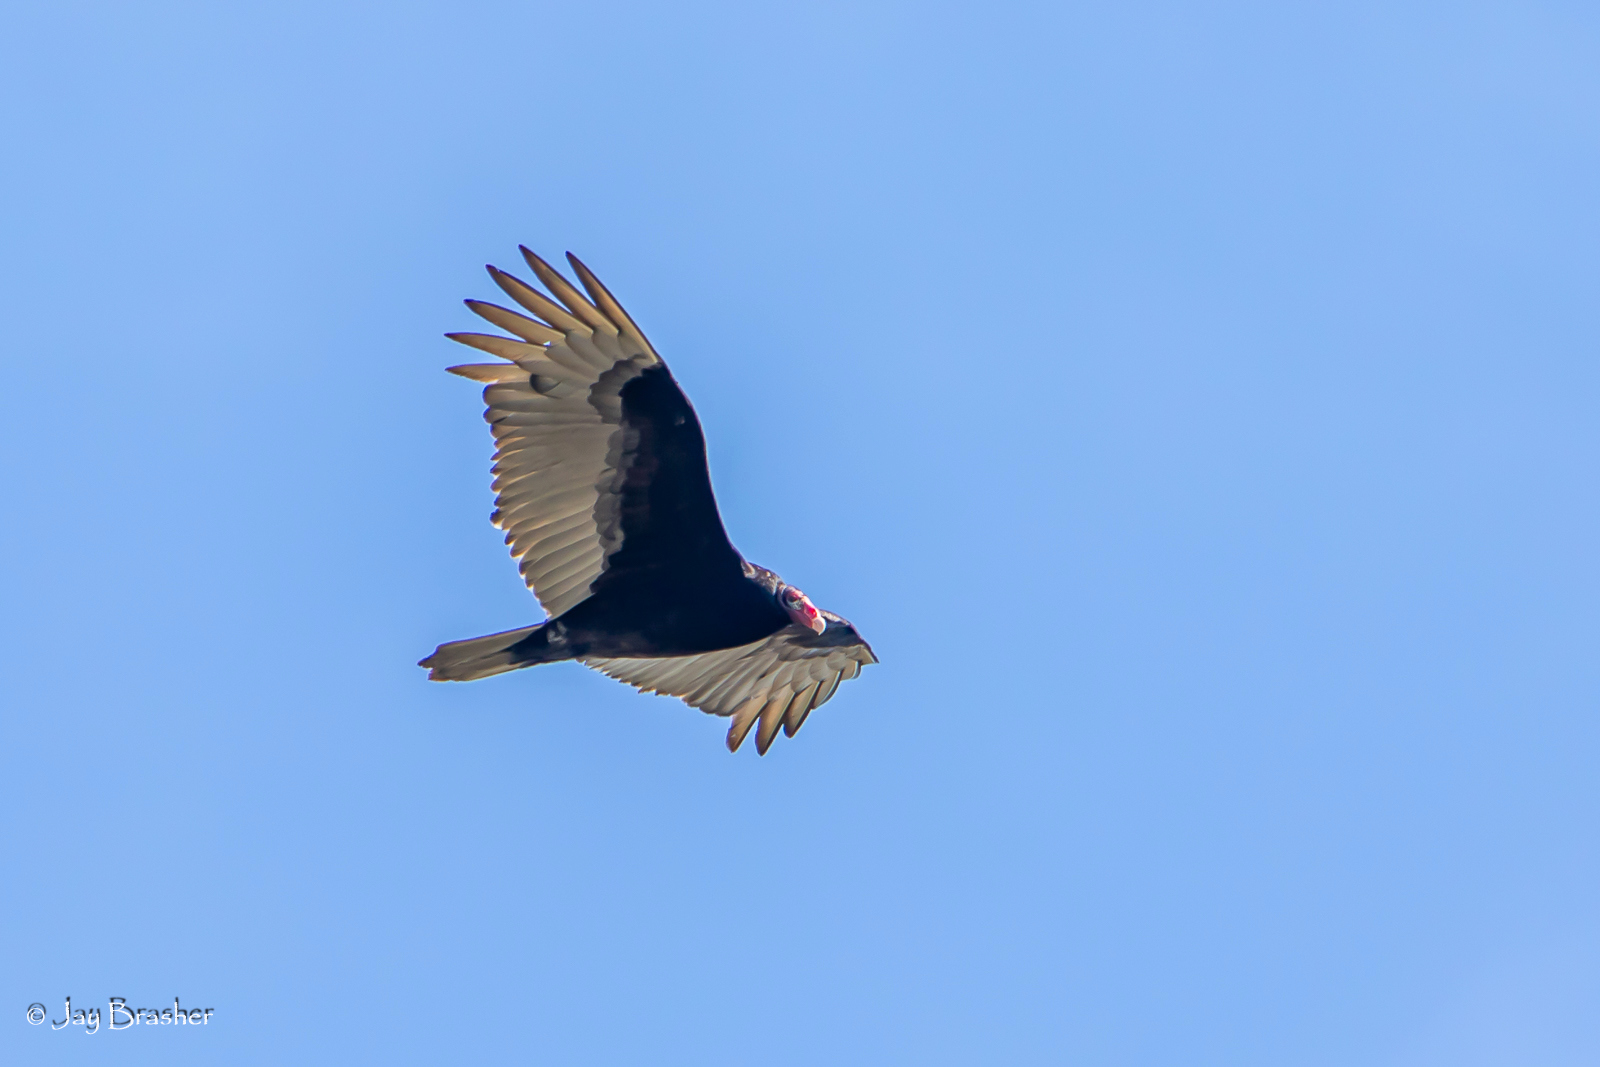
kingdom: Animalia
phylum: Chordata
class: Aves
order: Accipitriformes
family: Cathartidae
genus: Cathartes
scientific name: Cathartes aura
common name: Turkey vulture
